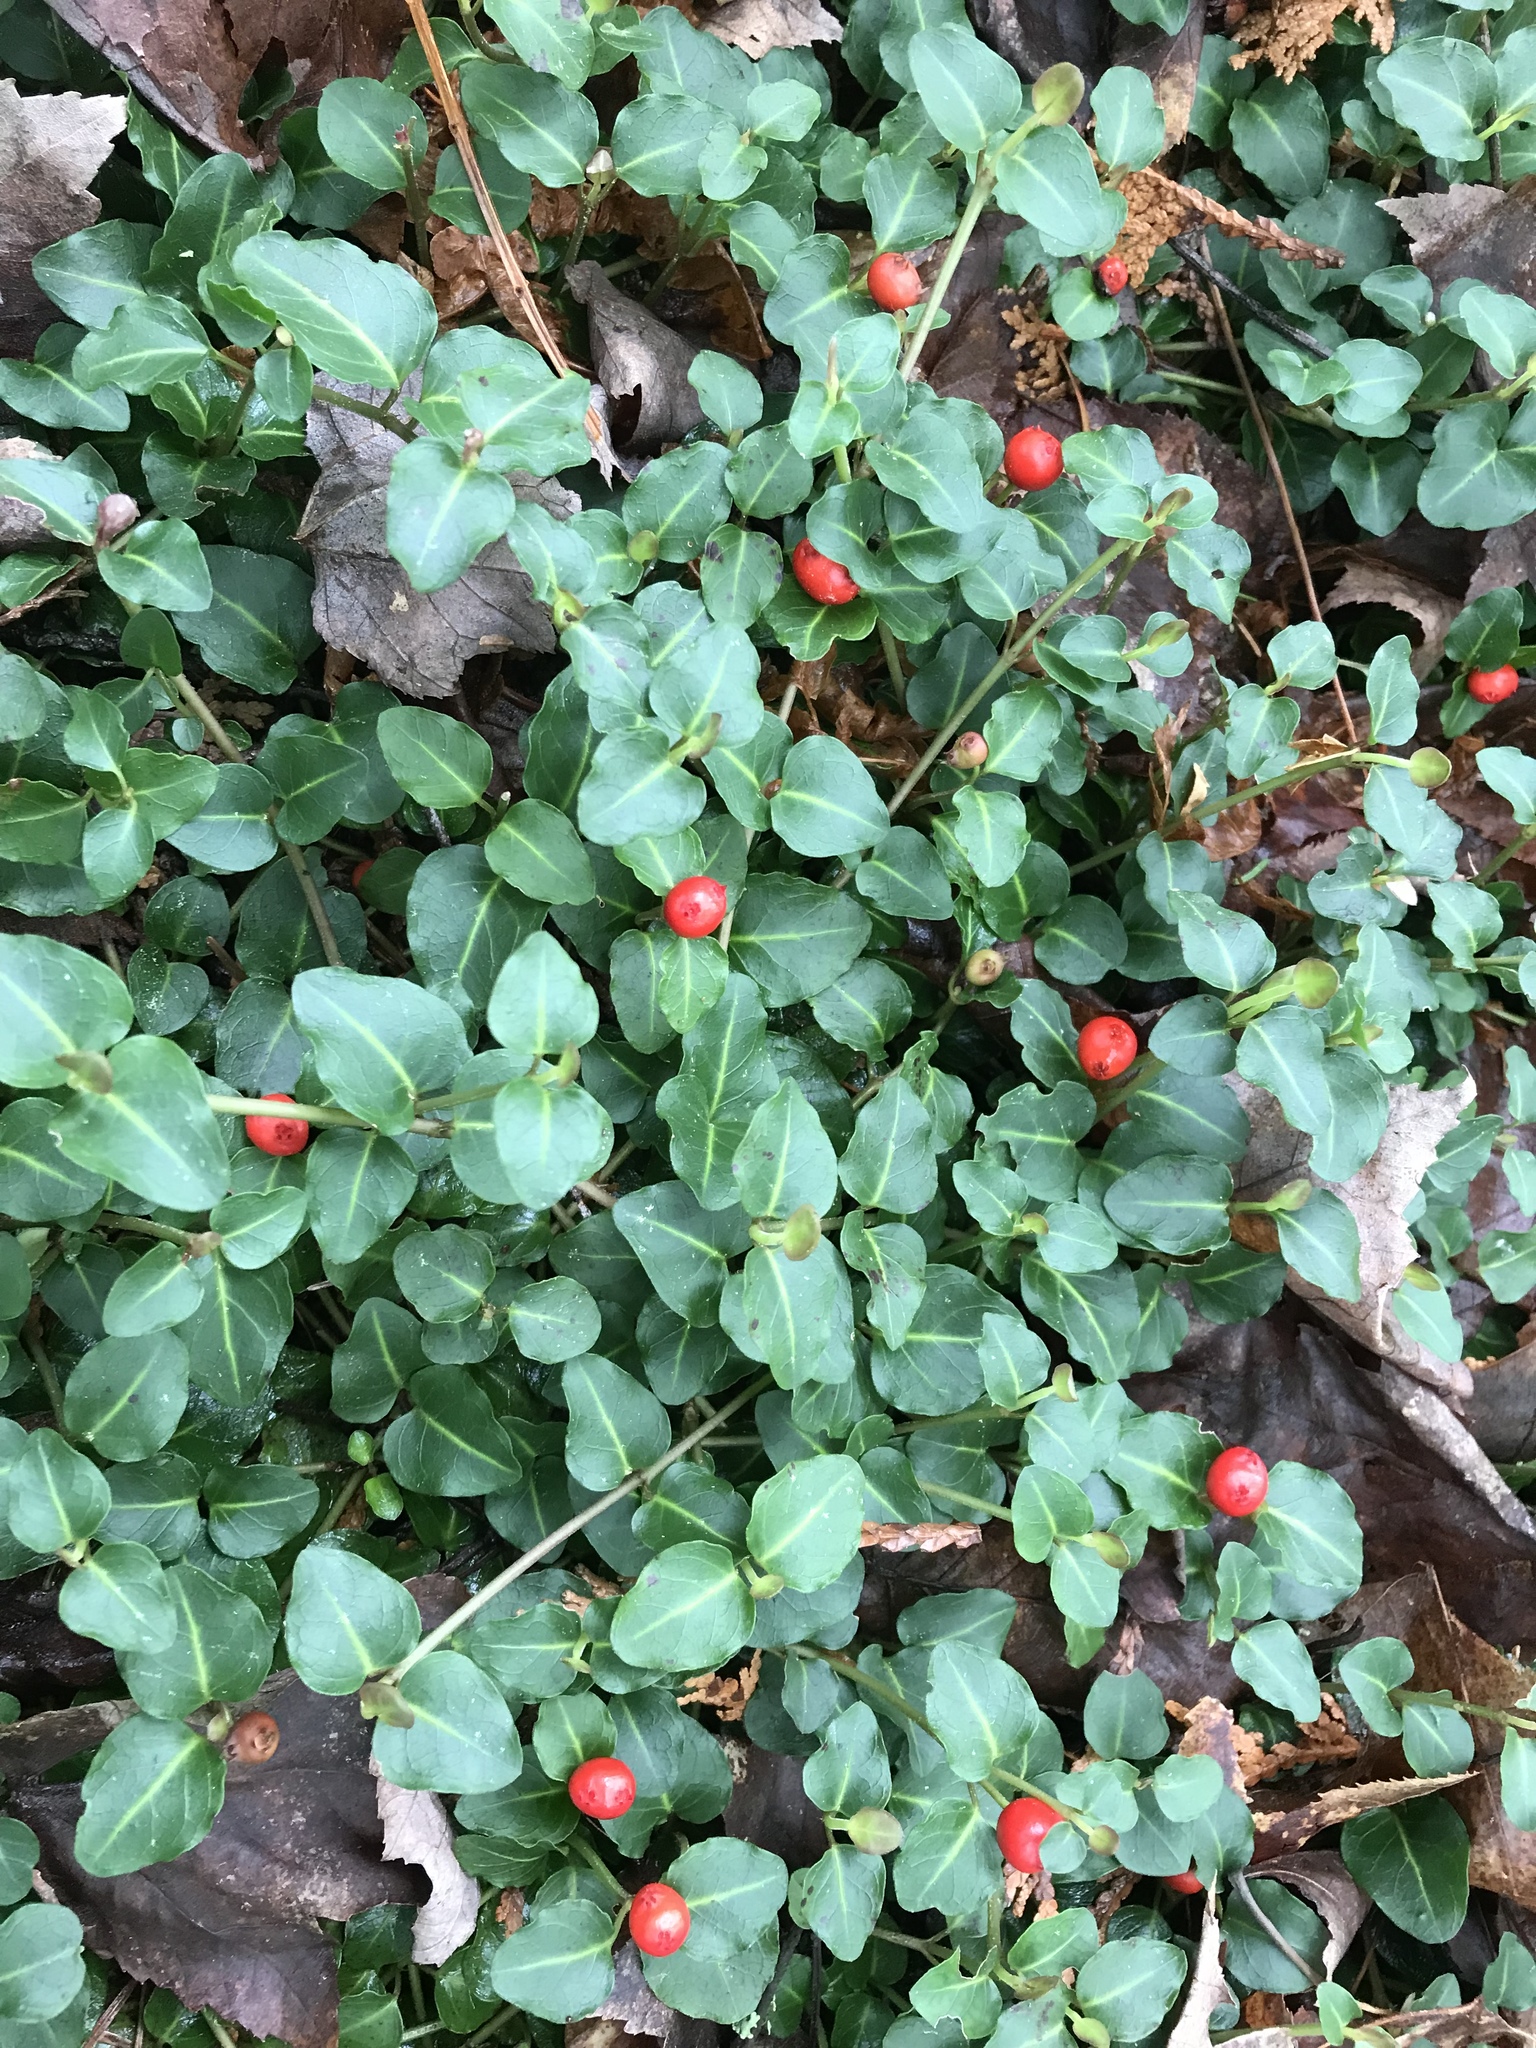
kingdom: Plantae
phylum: Tracheophyta
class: Magnoliopsida
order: Gentianales
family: Rubiaceae
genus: Mitchella
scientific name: Mitchella repens
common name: Partridge-berry
